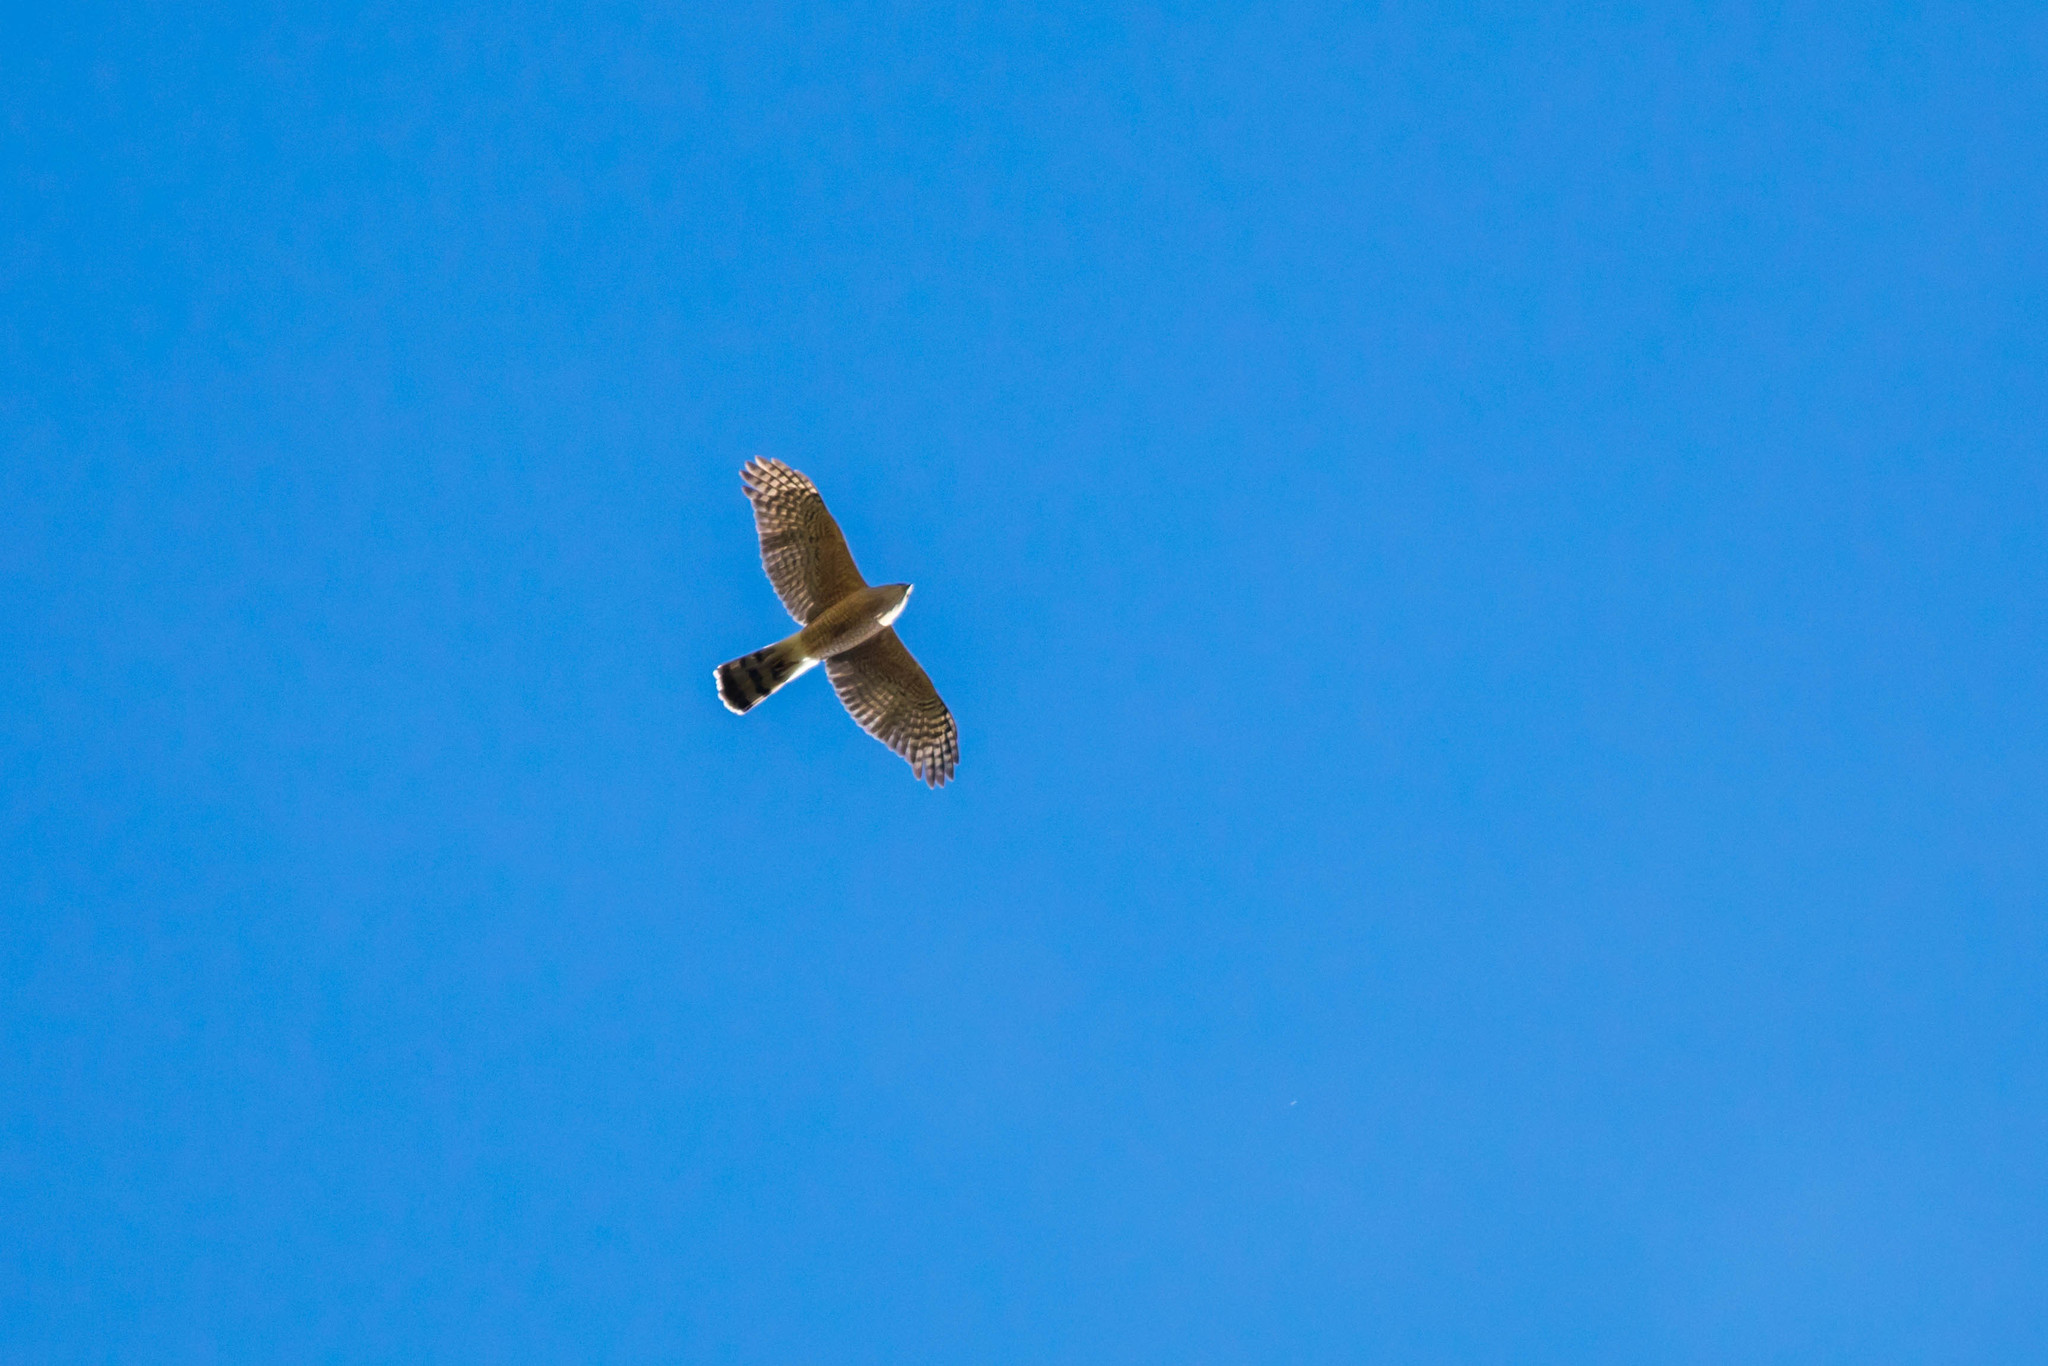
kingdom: Animalia
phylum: Chordata
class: Aves
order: Accipitriformes
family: Accipitridae
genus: Accipiter
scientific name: Accipiter cooperii
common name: Cooper's hawk
